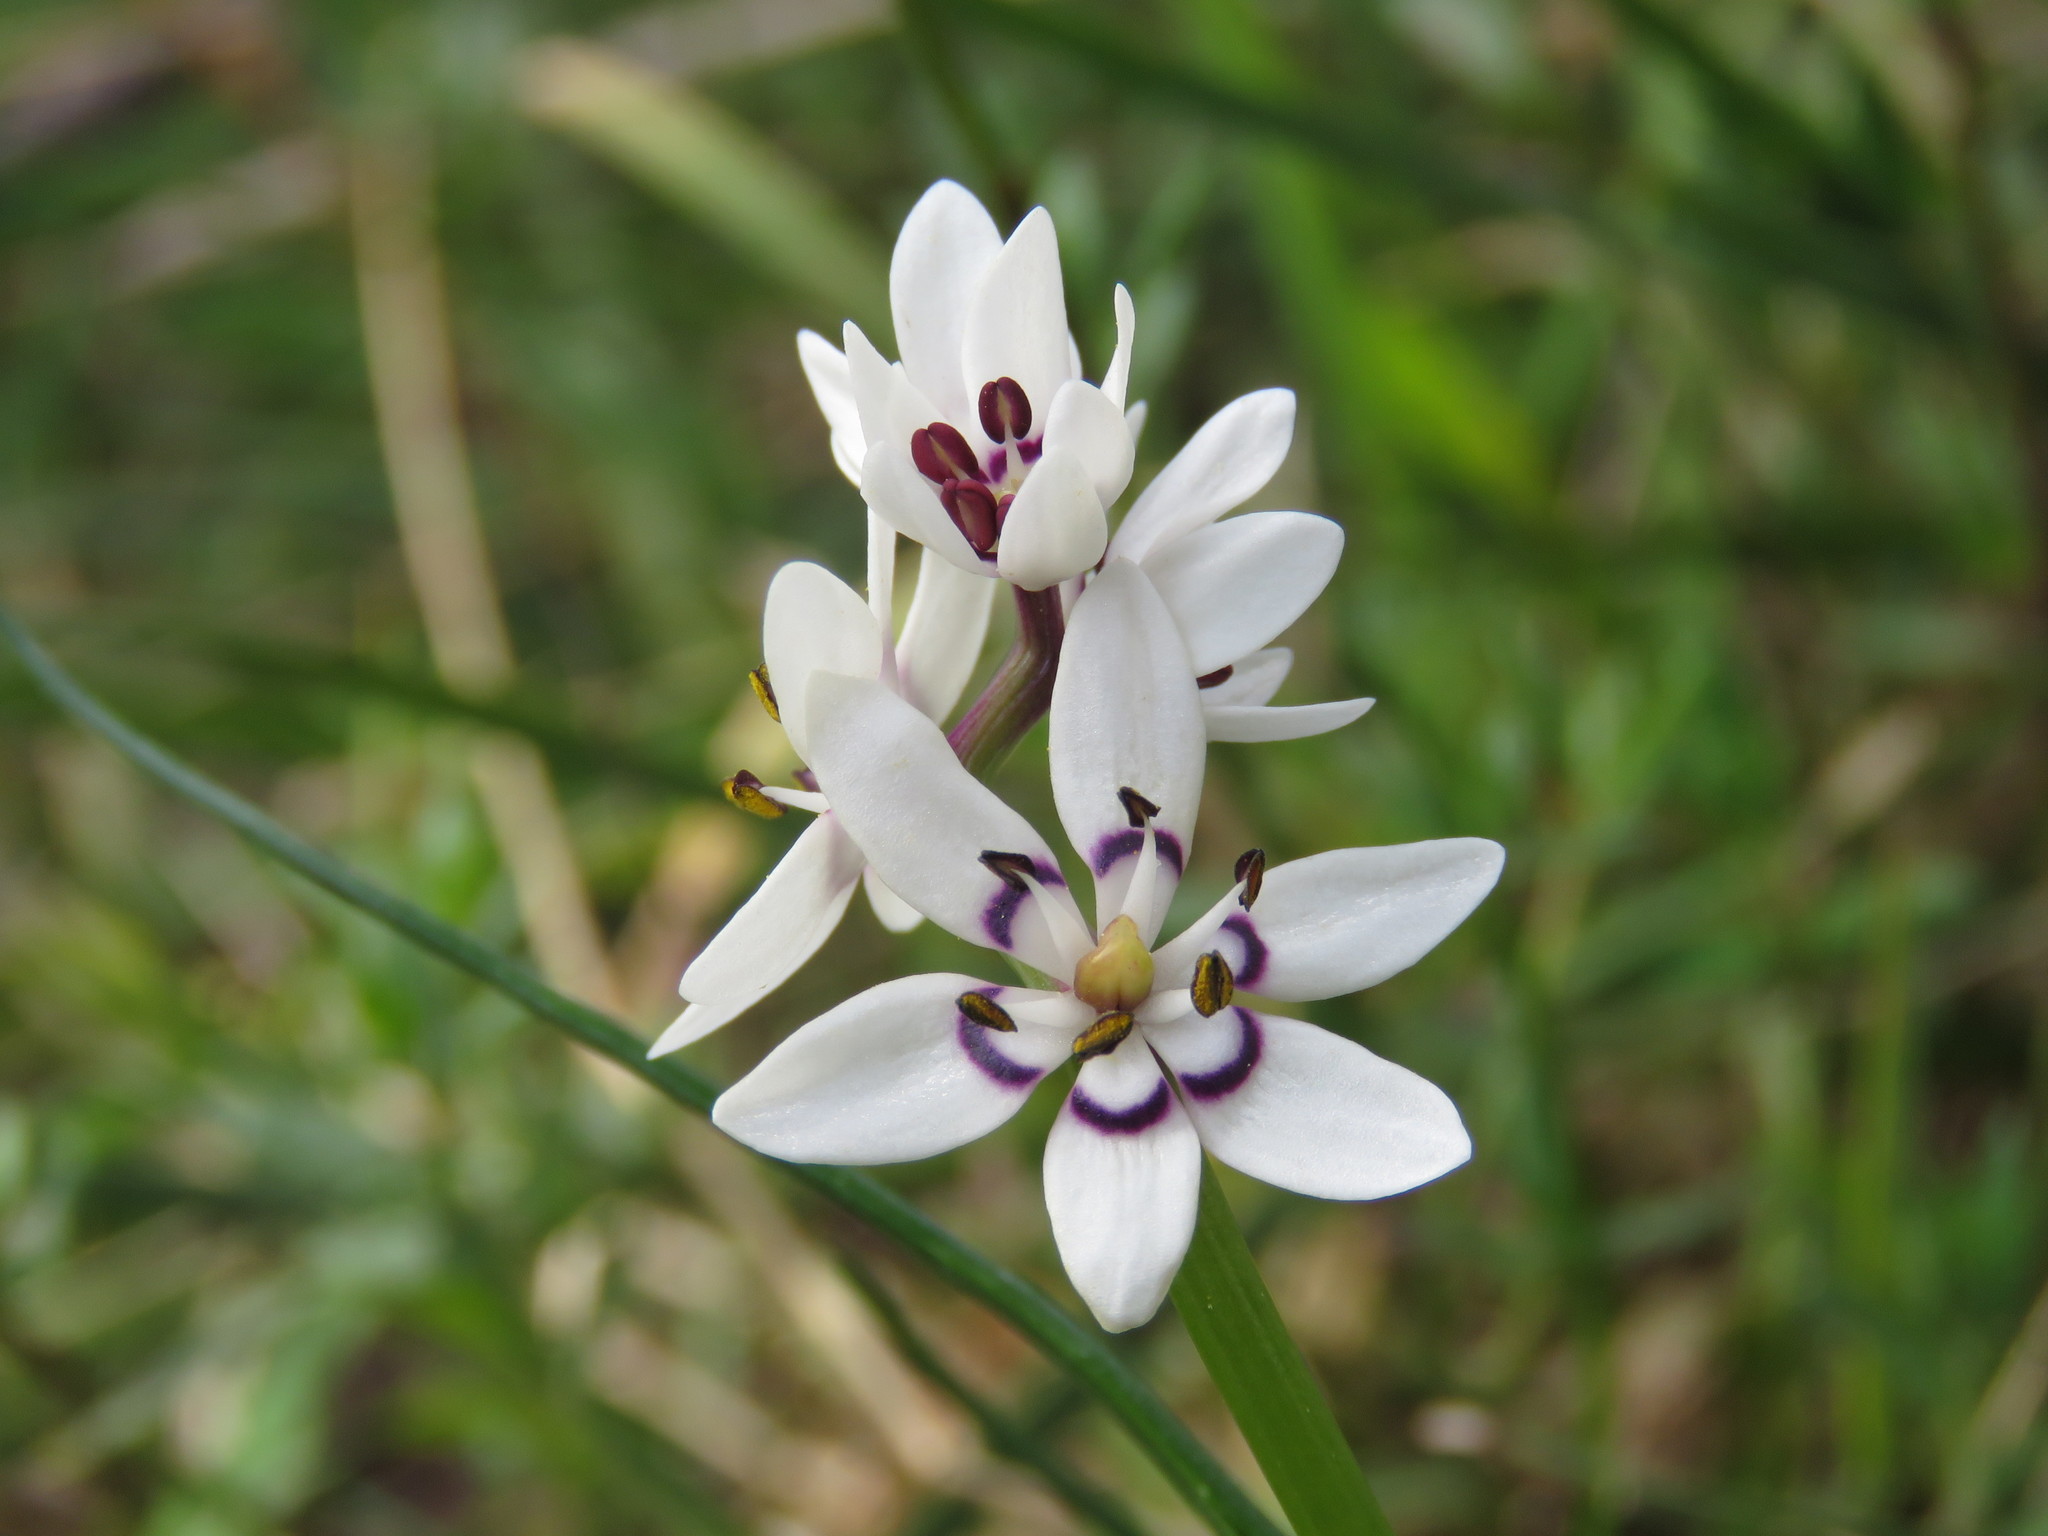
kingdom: Plantae
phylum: Tracheophyta
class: Liliopsida
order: Liliales
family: Colchicaceae
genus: Wurmbea
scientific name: Wurmbea dioica
